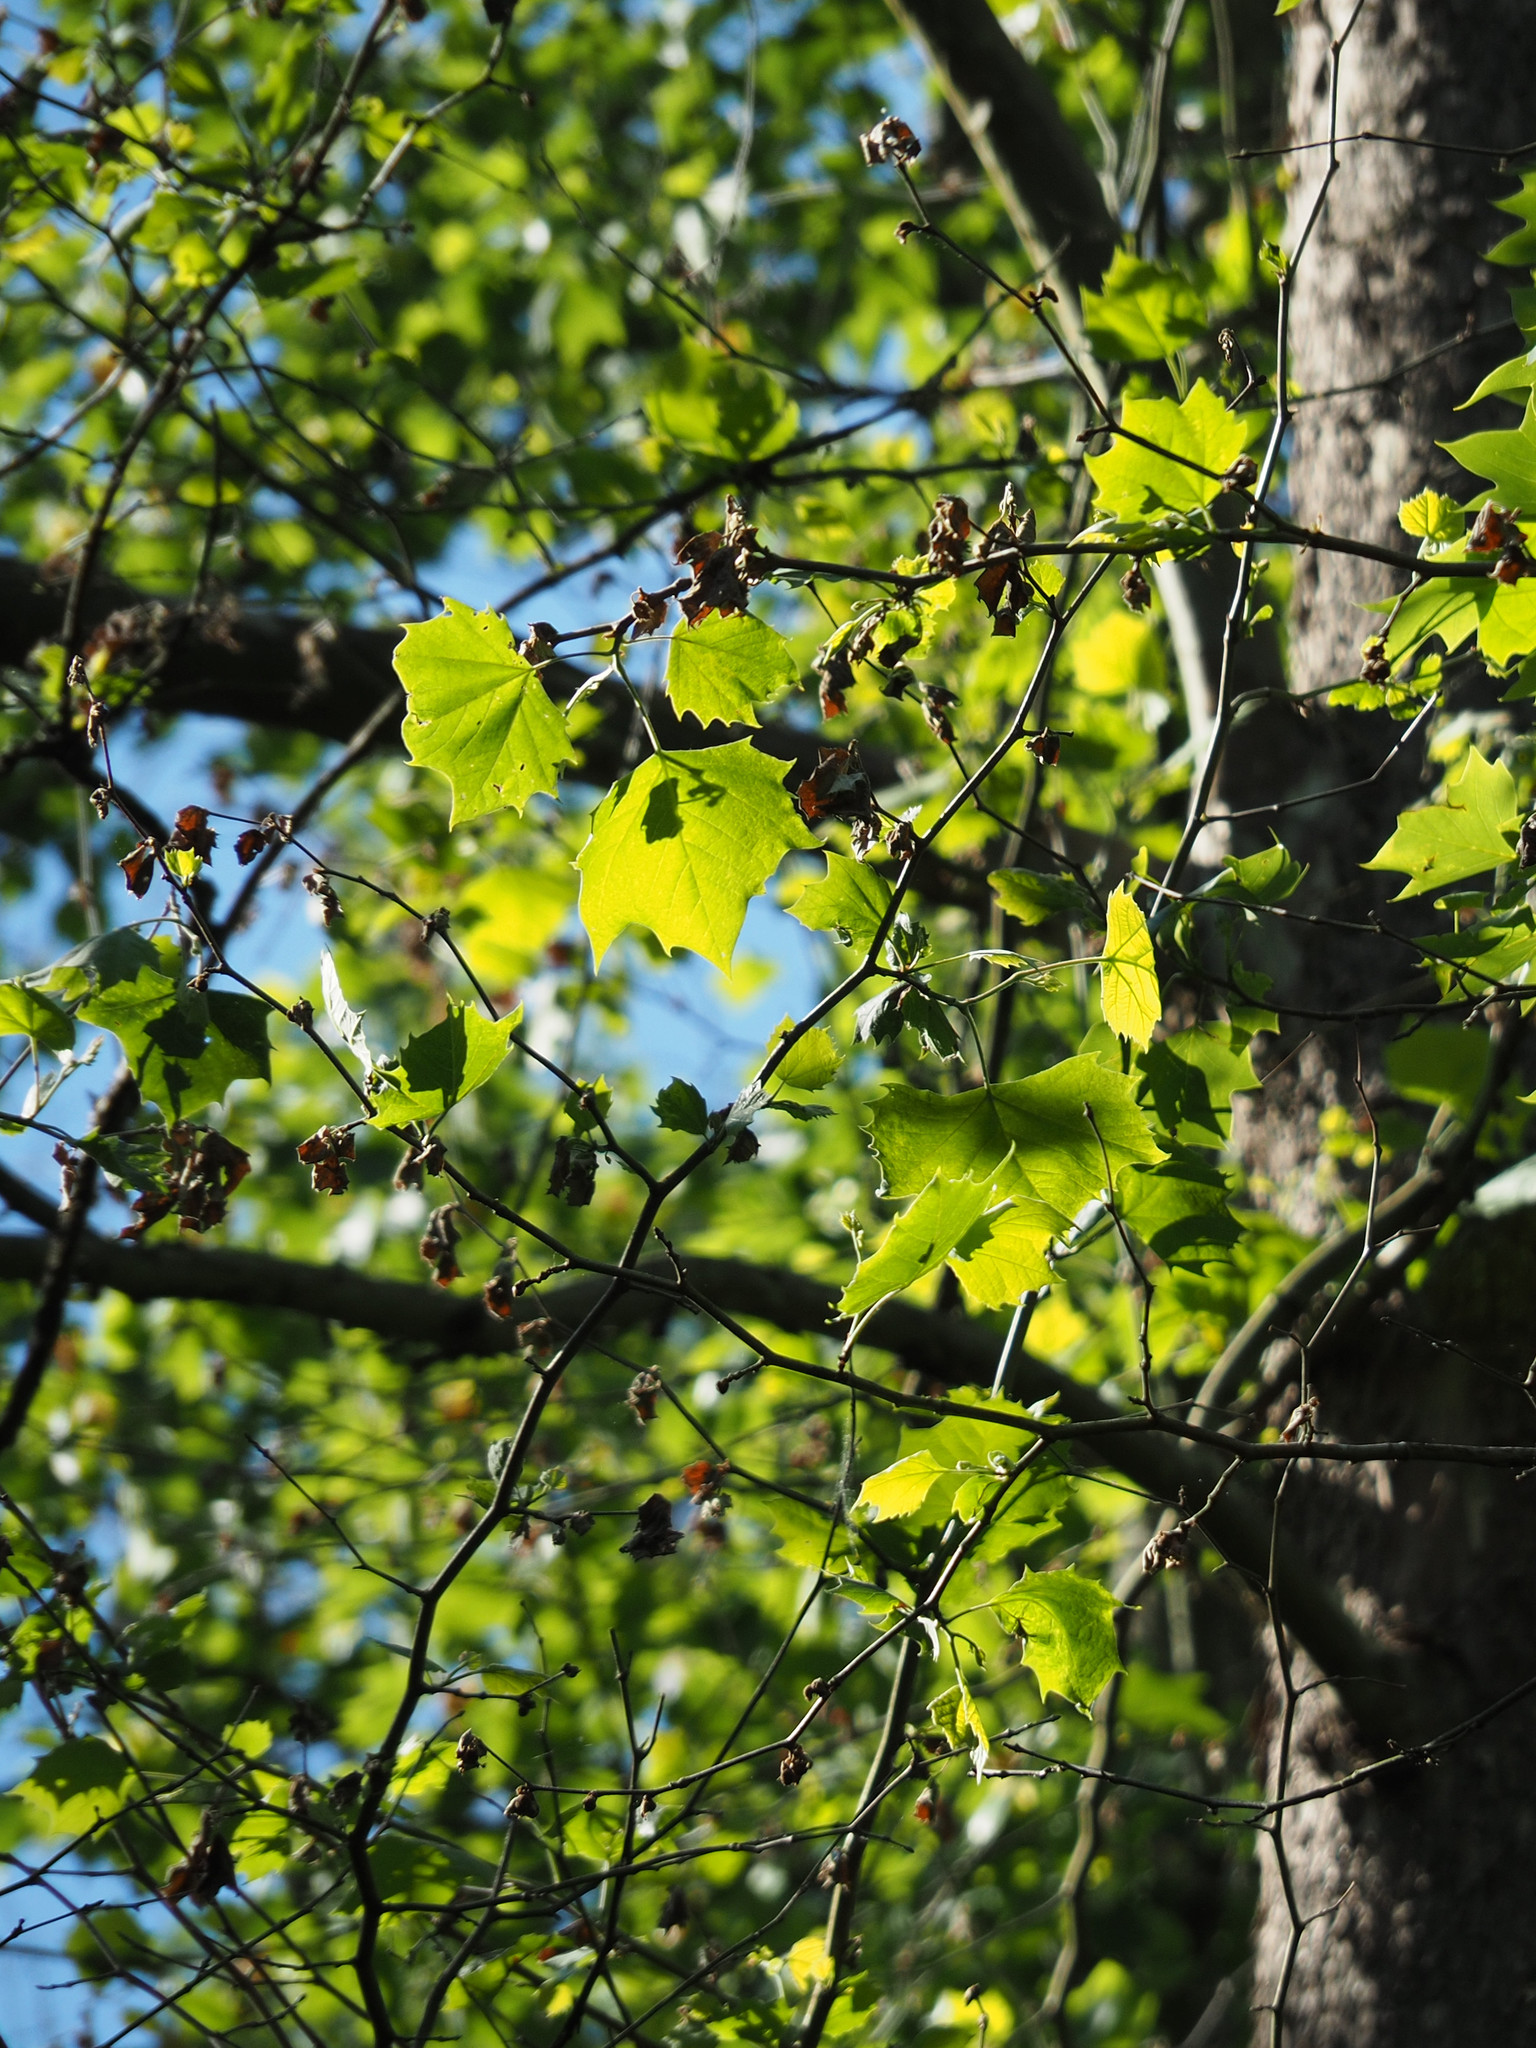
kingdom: Plantae
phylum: Tracheophyta
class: Magnoliopsida
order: Proteales
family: Platanaceae
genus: Platanus
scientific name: Platanus occidentalis
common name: American sycamore
